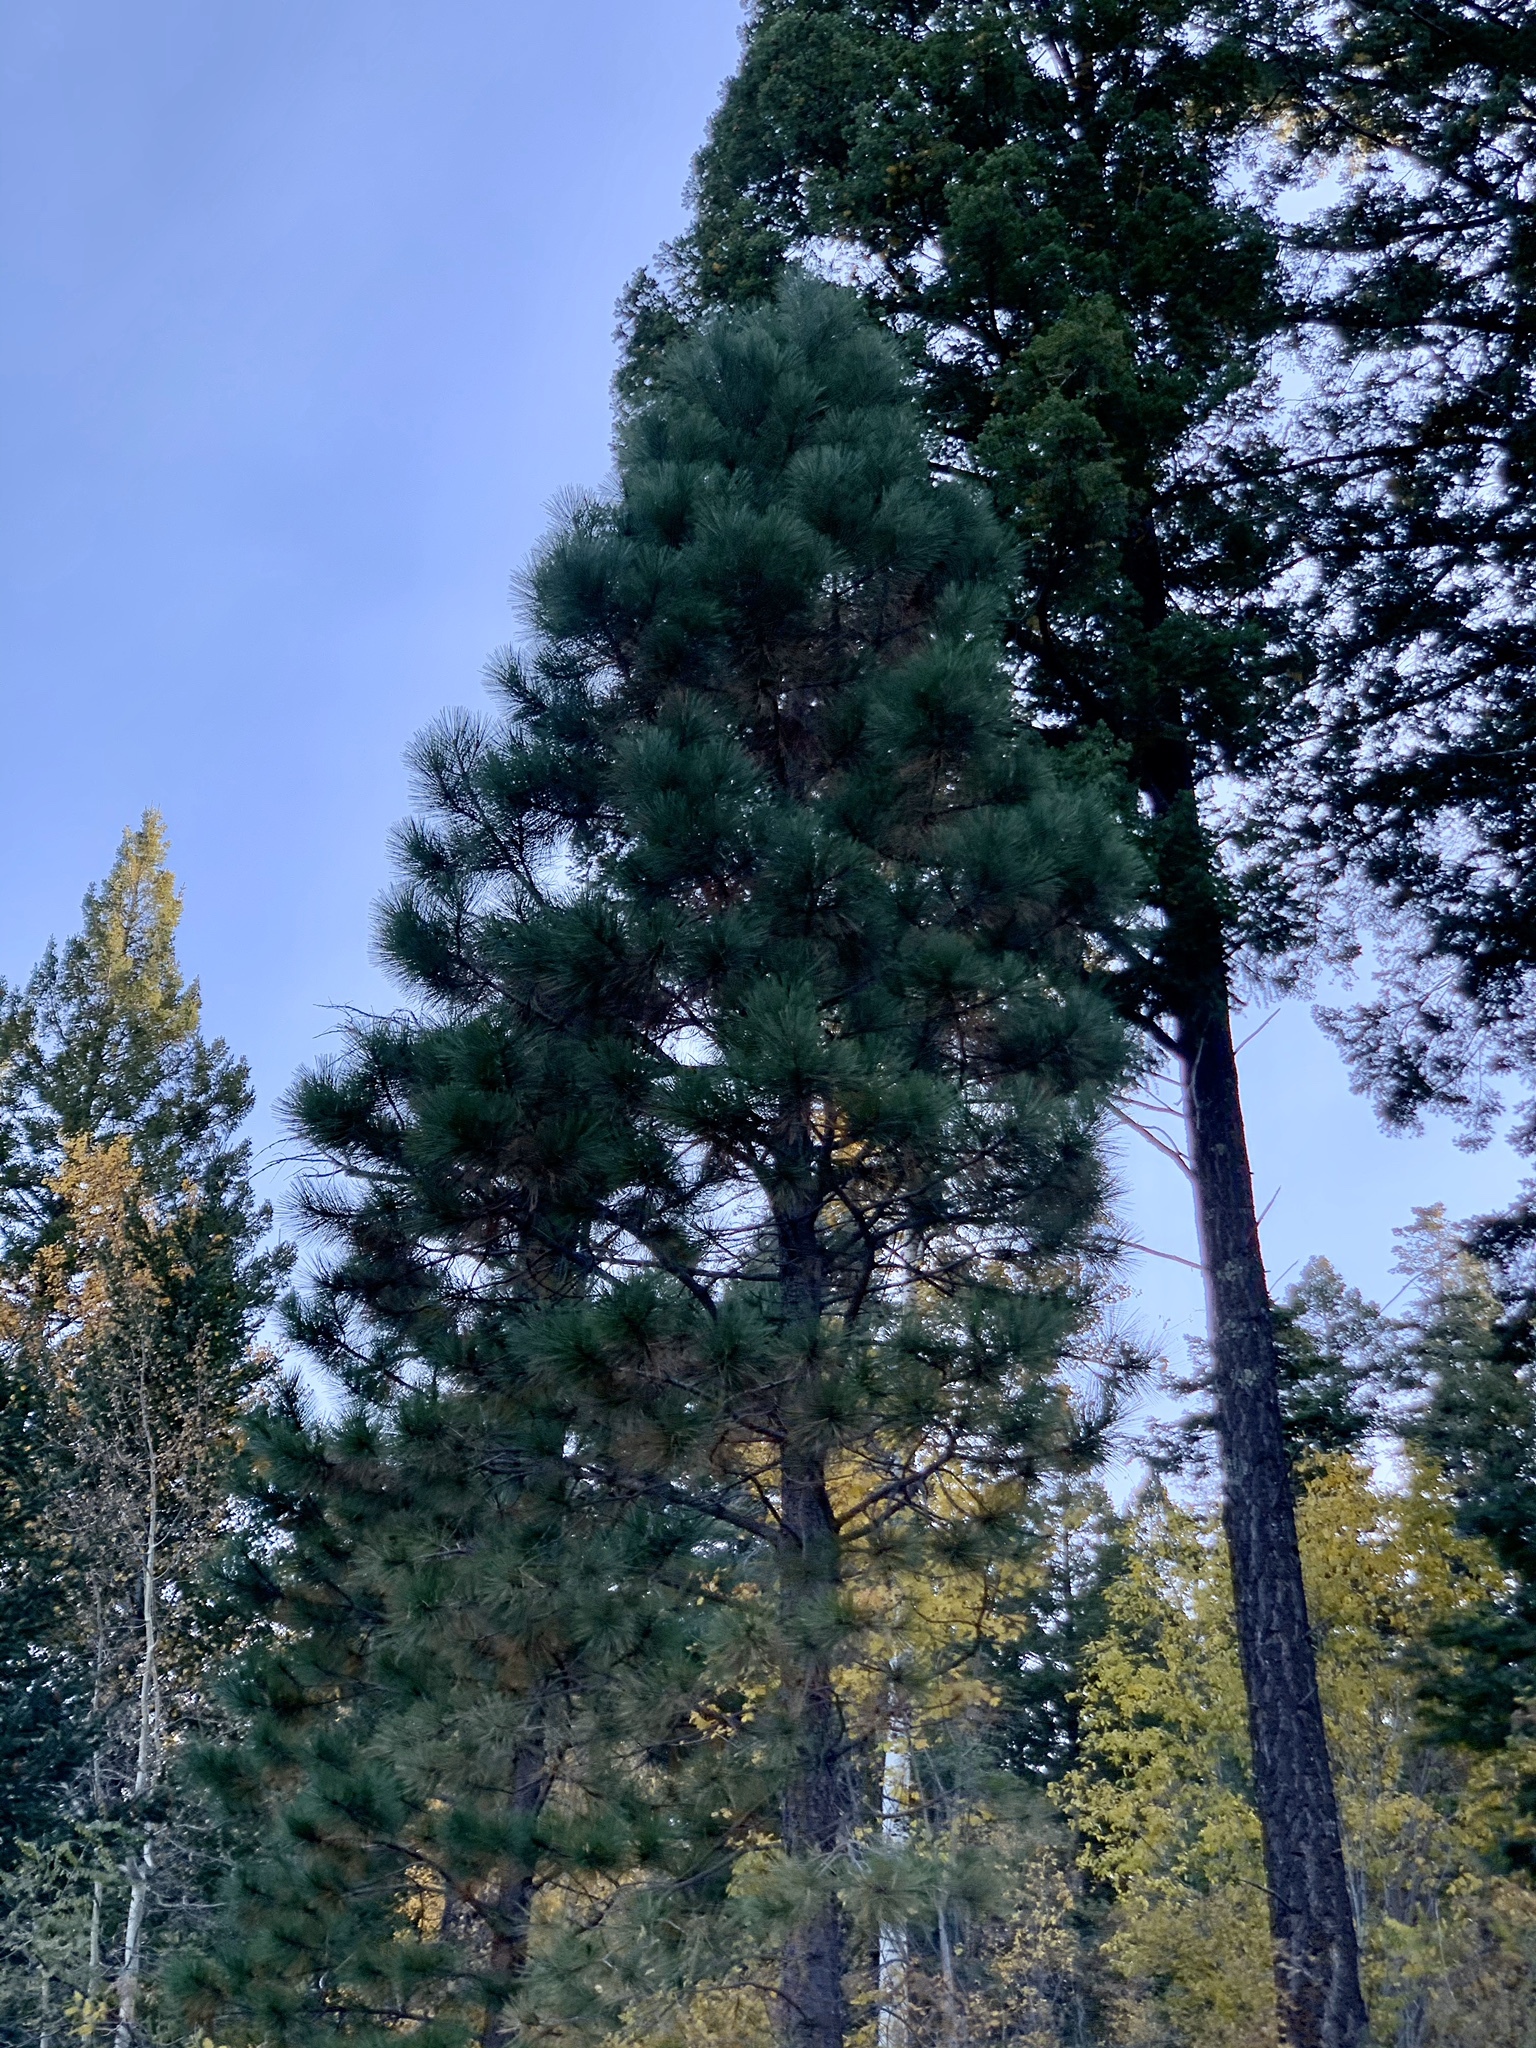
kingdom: Plantae
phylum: Tracheophyta
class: Pinopsida
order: Pinales
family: Pinaceae
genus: Pinus
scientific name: Pinus ponderosa
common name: Western yellow-pine
